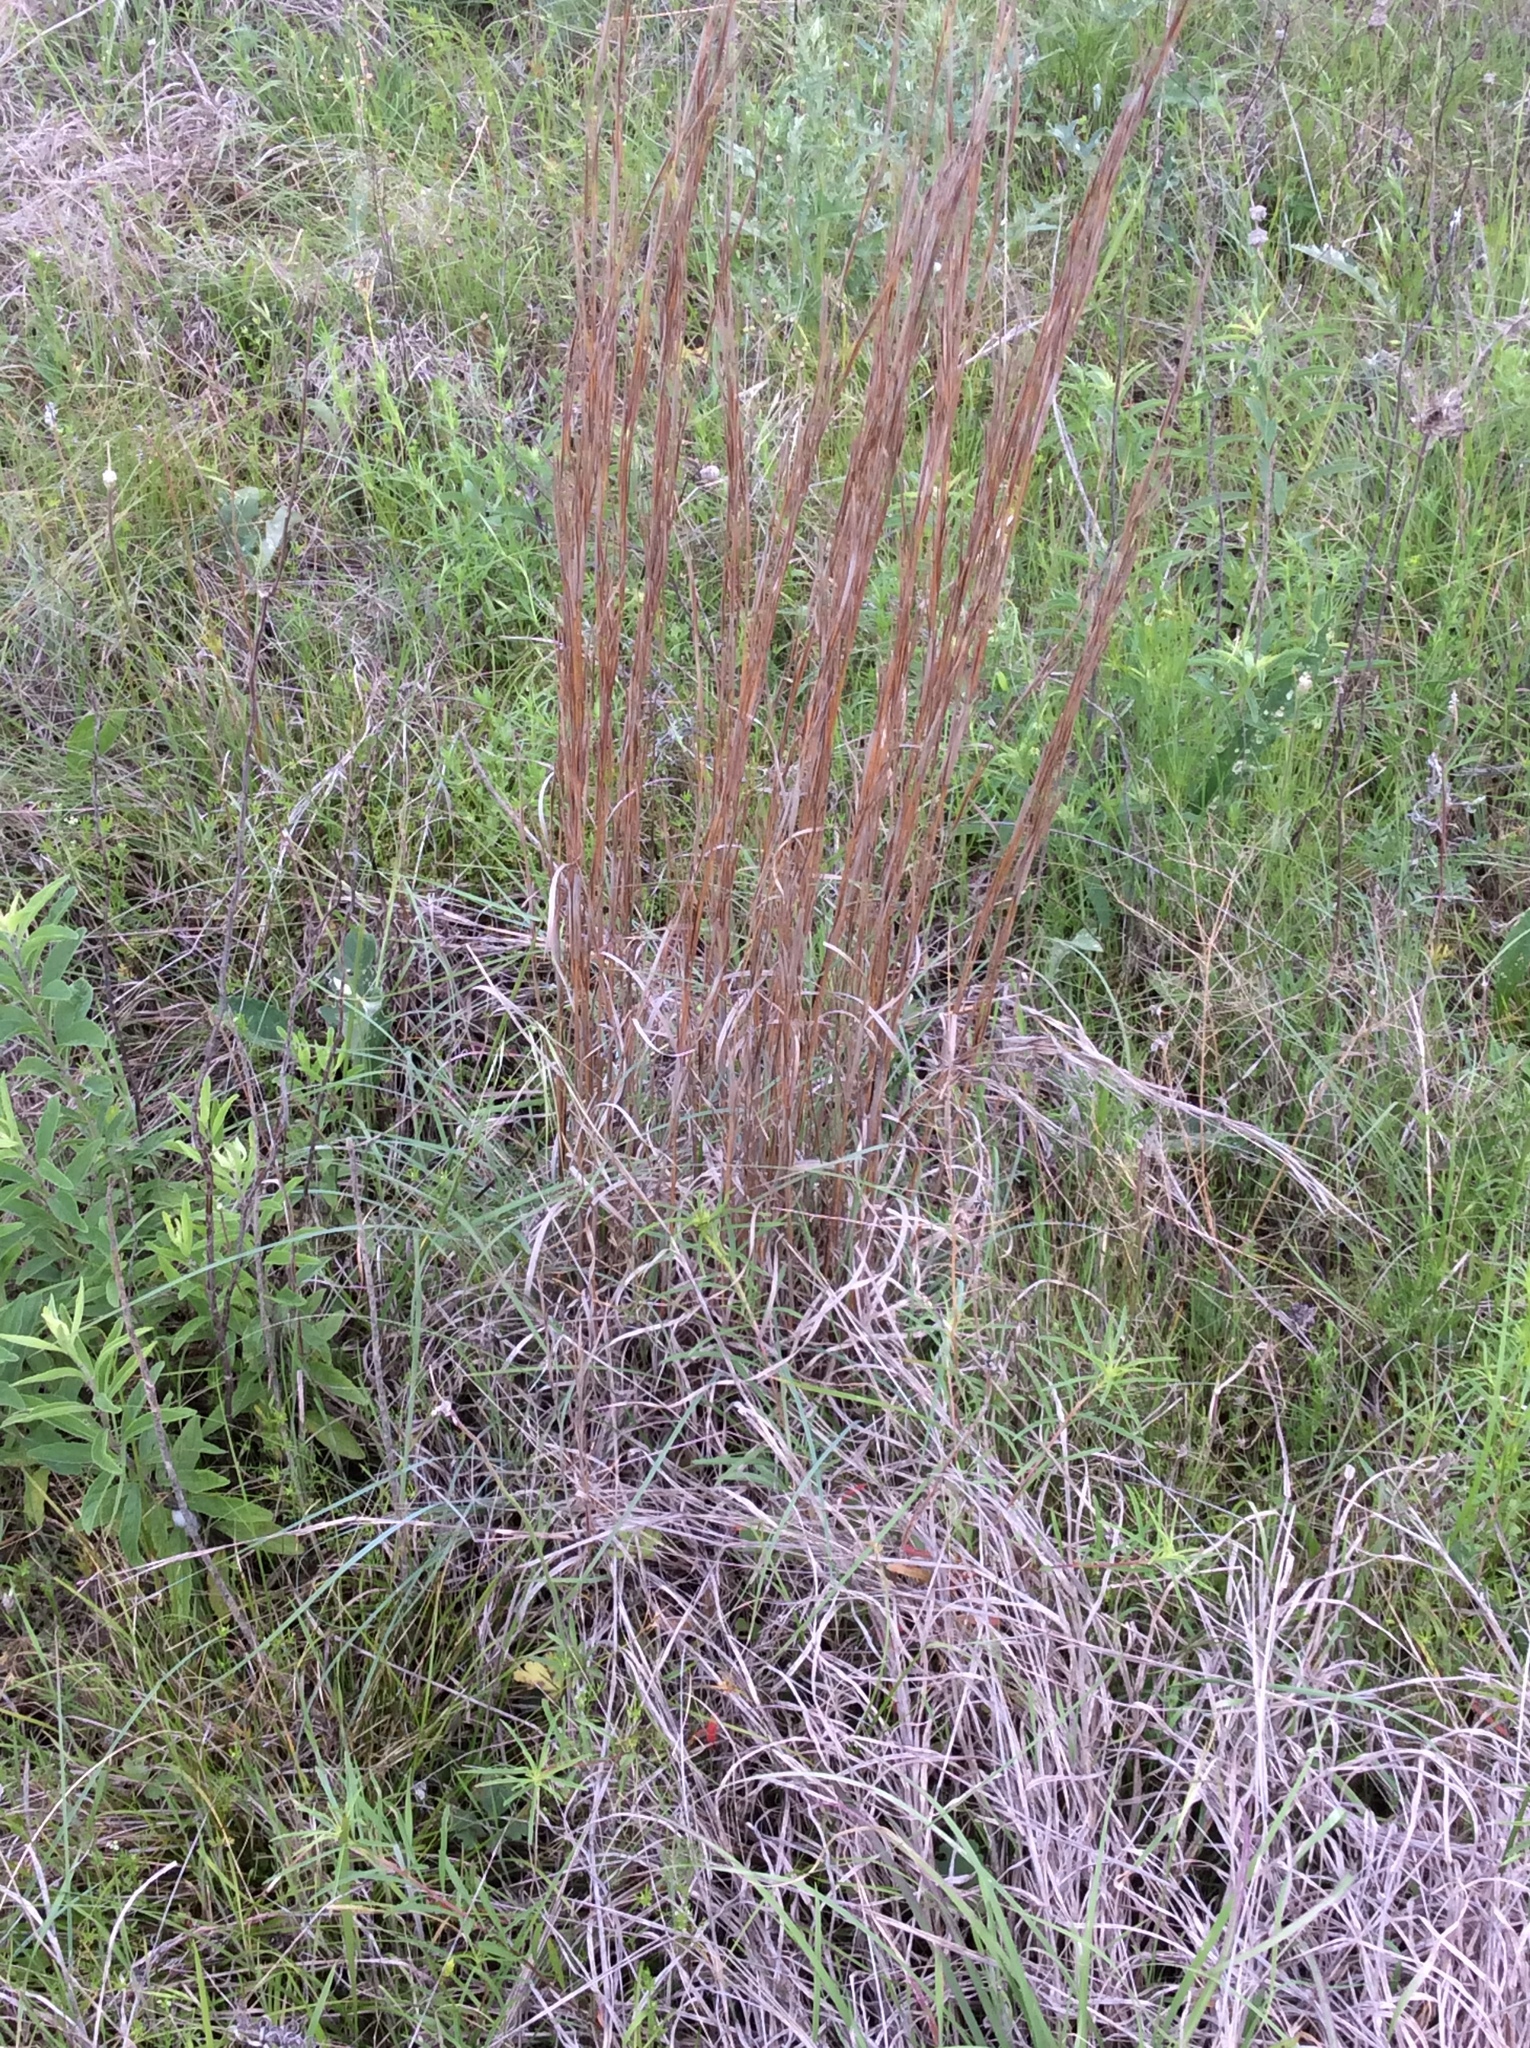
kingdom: Plantae
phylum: Tracheophyta
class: Liliopsida
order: Poales
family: Poaceae
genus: Schizachyrium
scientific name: Schizachyrium scoparium
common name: Little bluestem
